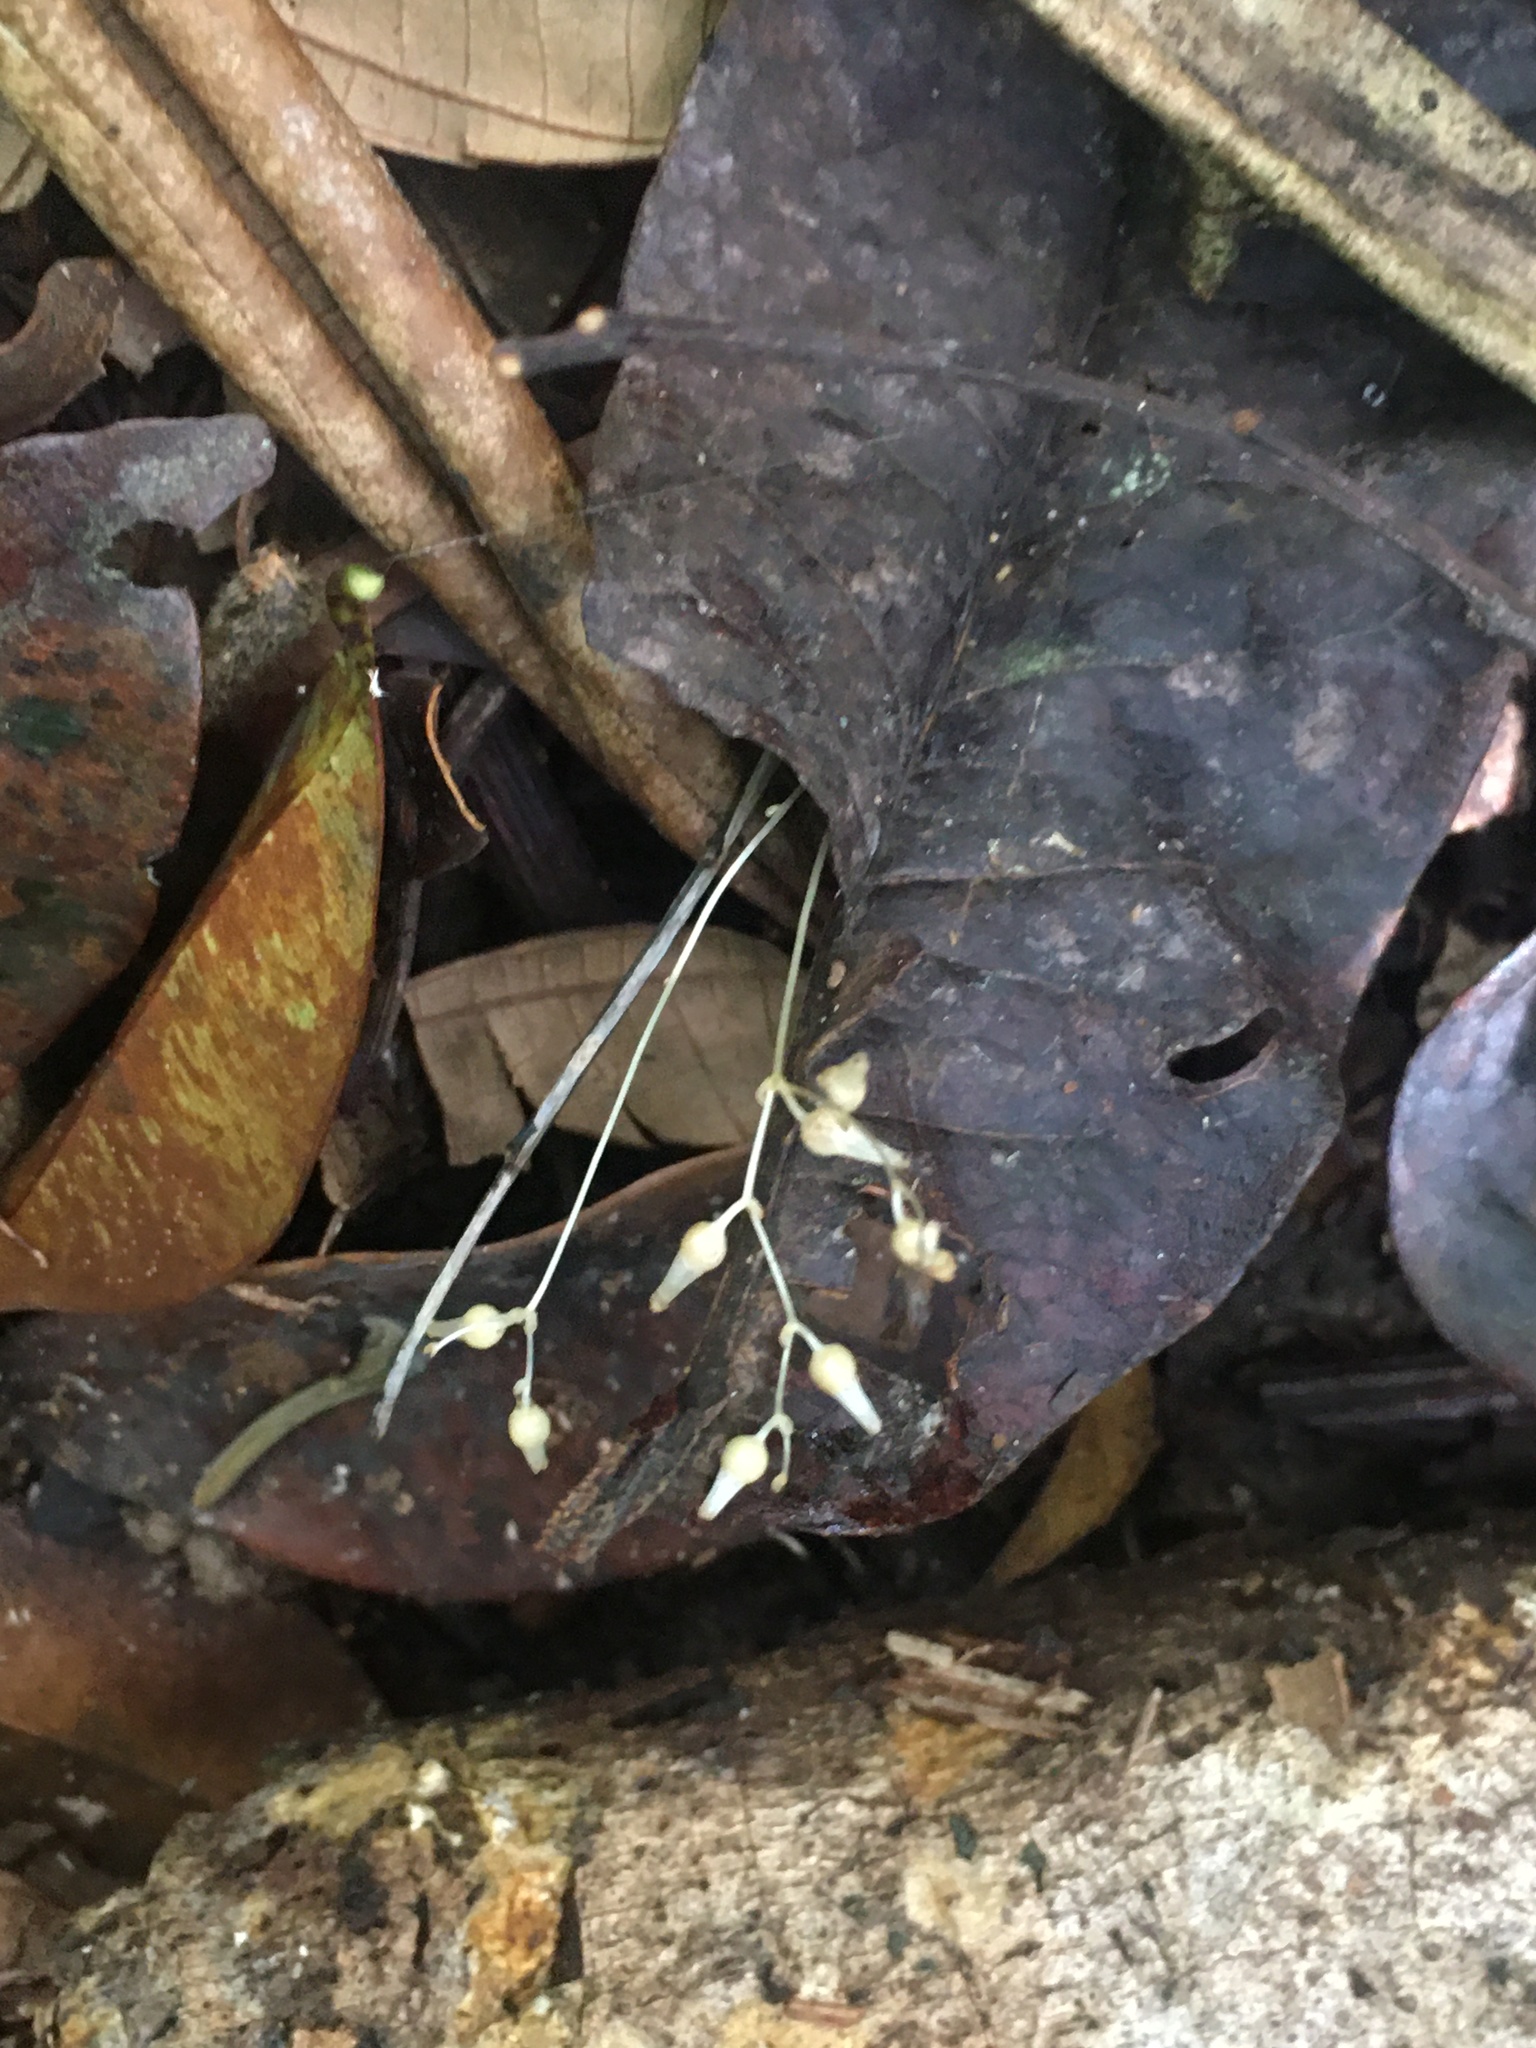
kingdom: Plantae
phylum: Tracheophyta
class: Liliopsida
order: Dioscoreales
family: Burmanniaceae
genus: Gymnosiphon
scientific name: Gymnosiphon divaricatus
